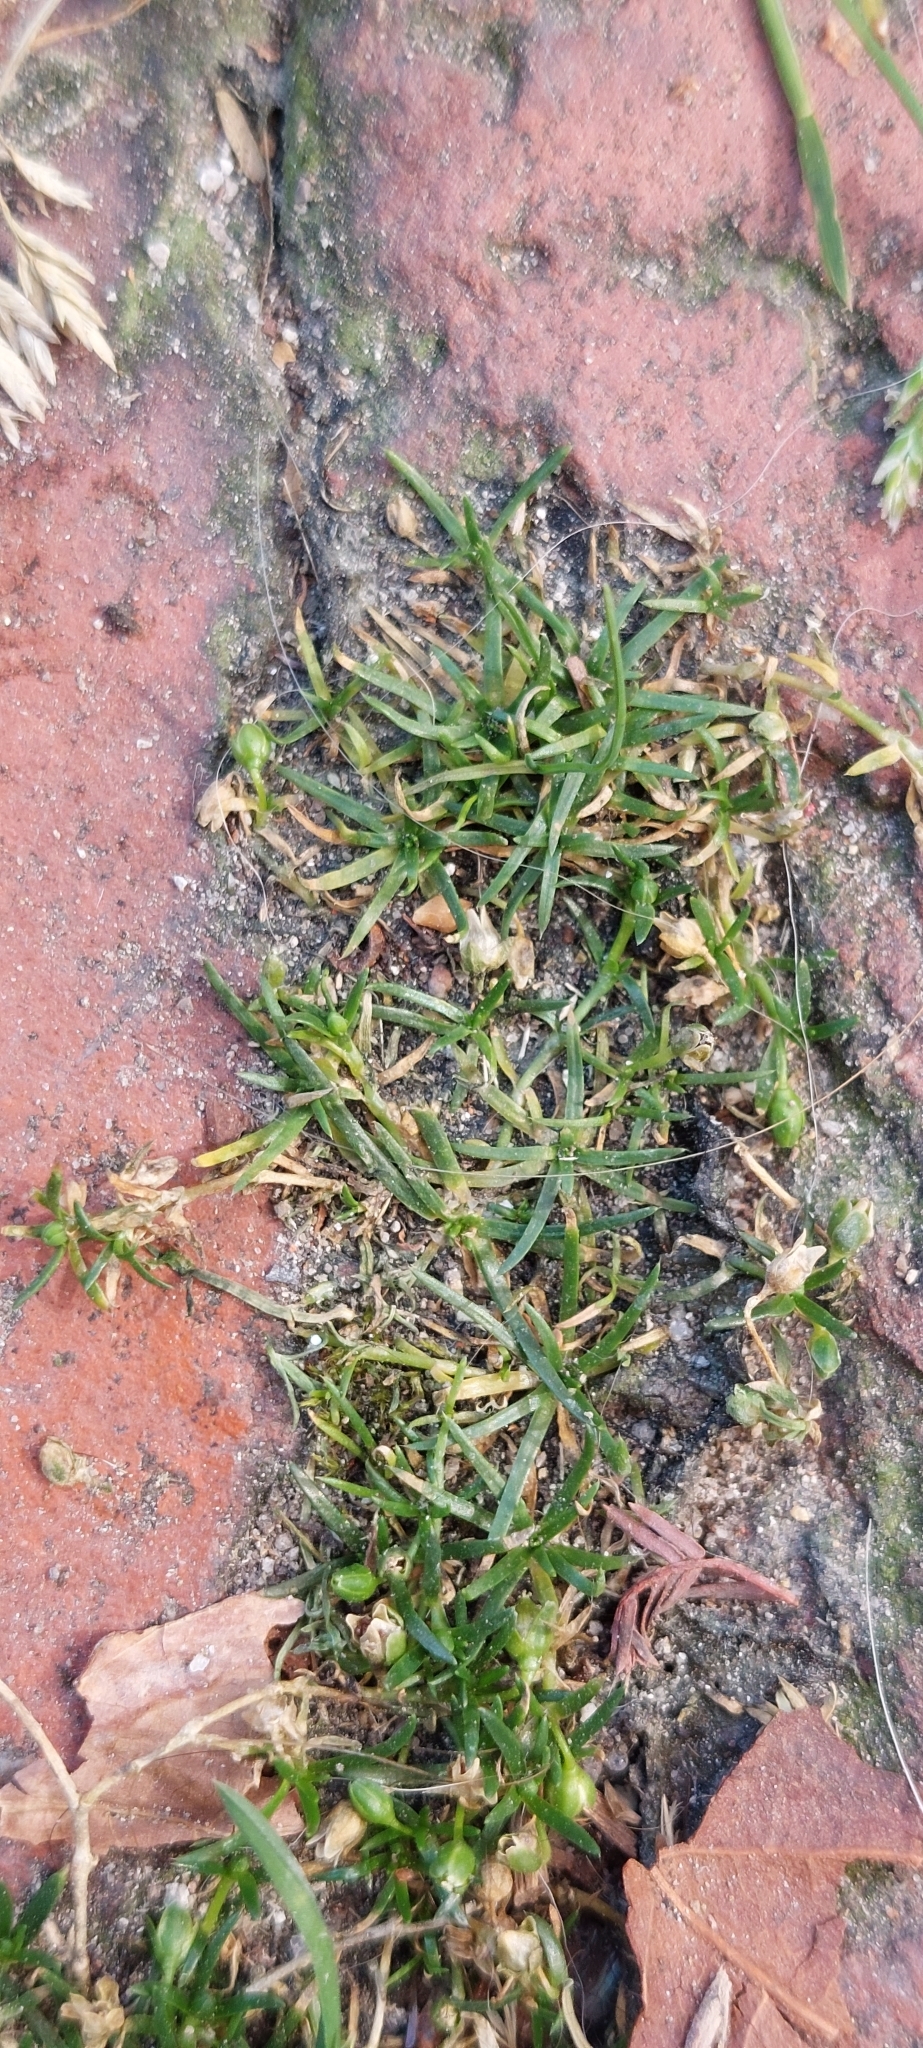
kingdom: Plantae
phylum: Tracheophyta
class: Magnoliopsida
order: Caryophyllales
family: Caryophyllaceae
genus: Sagina
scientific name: Sagina procumbens
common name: Procumbent pearlwort
